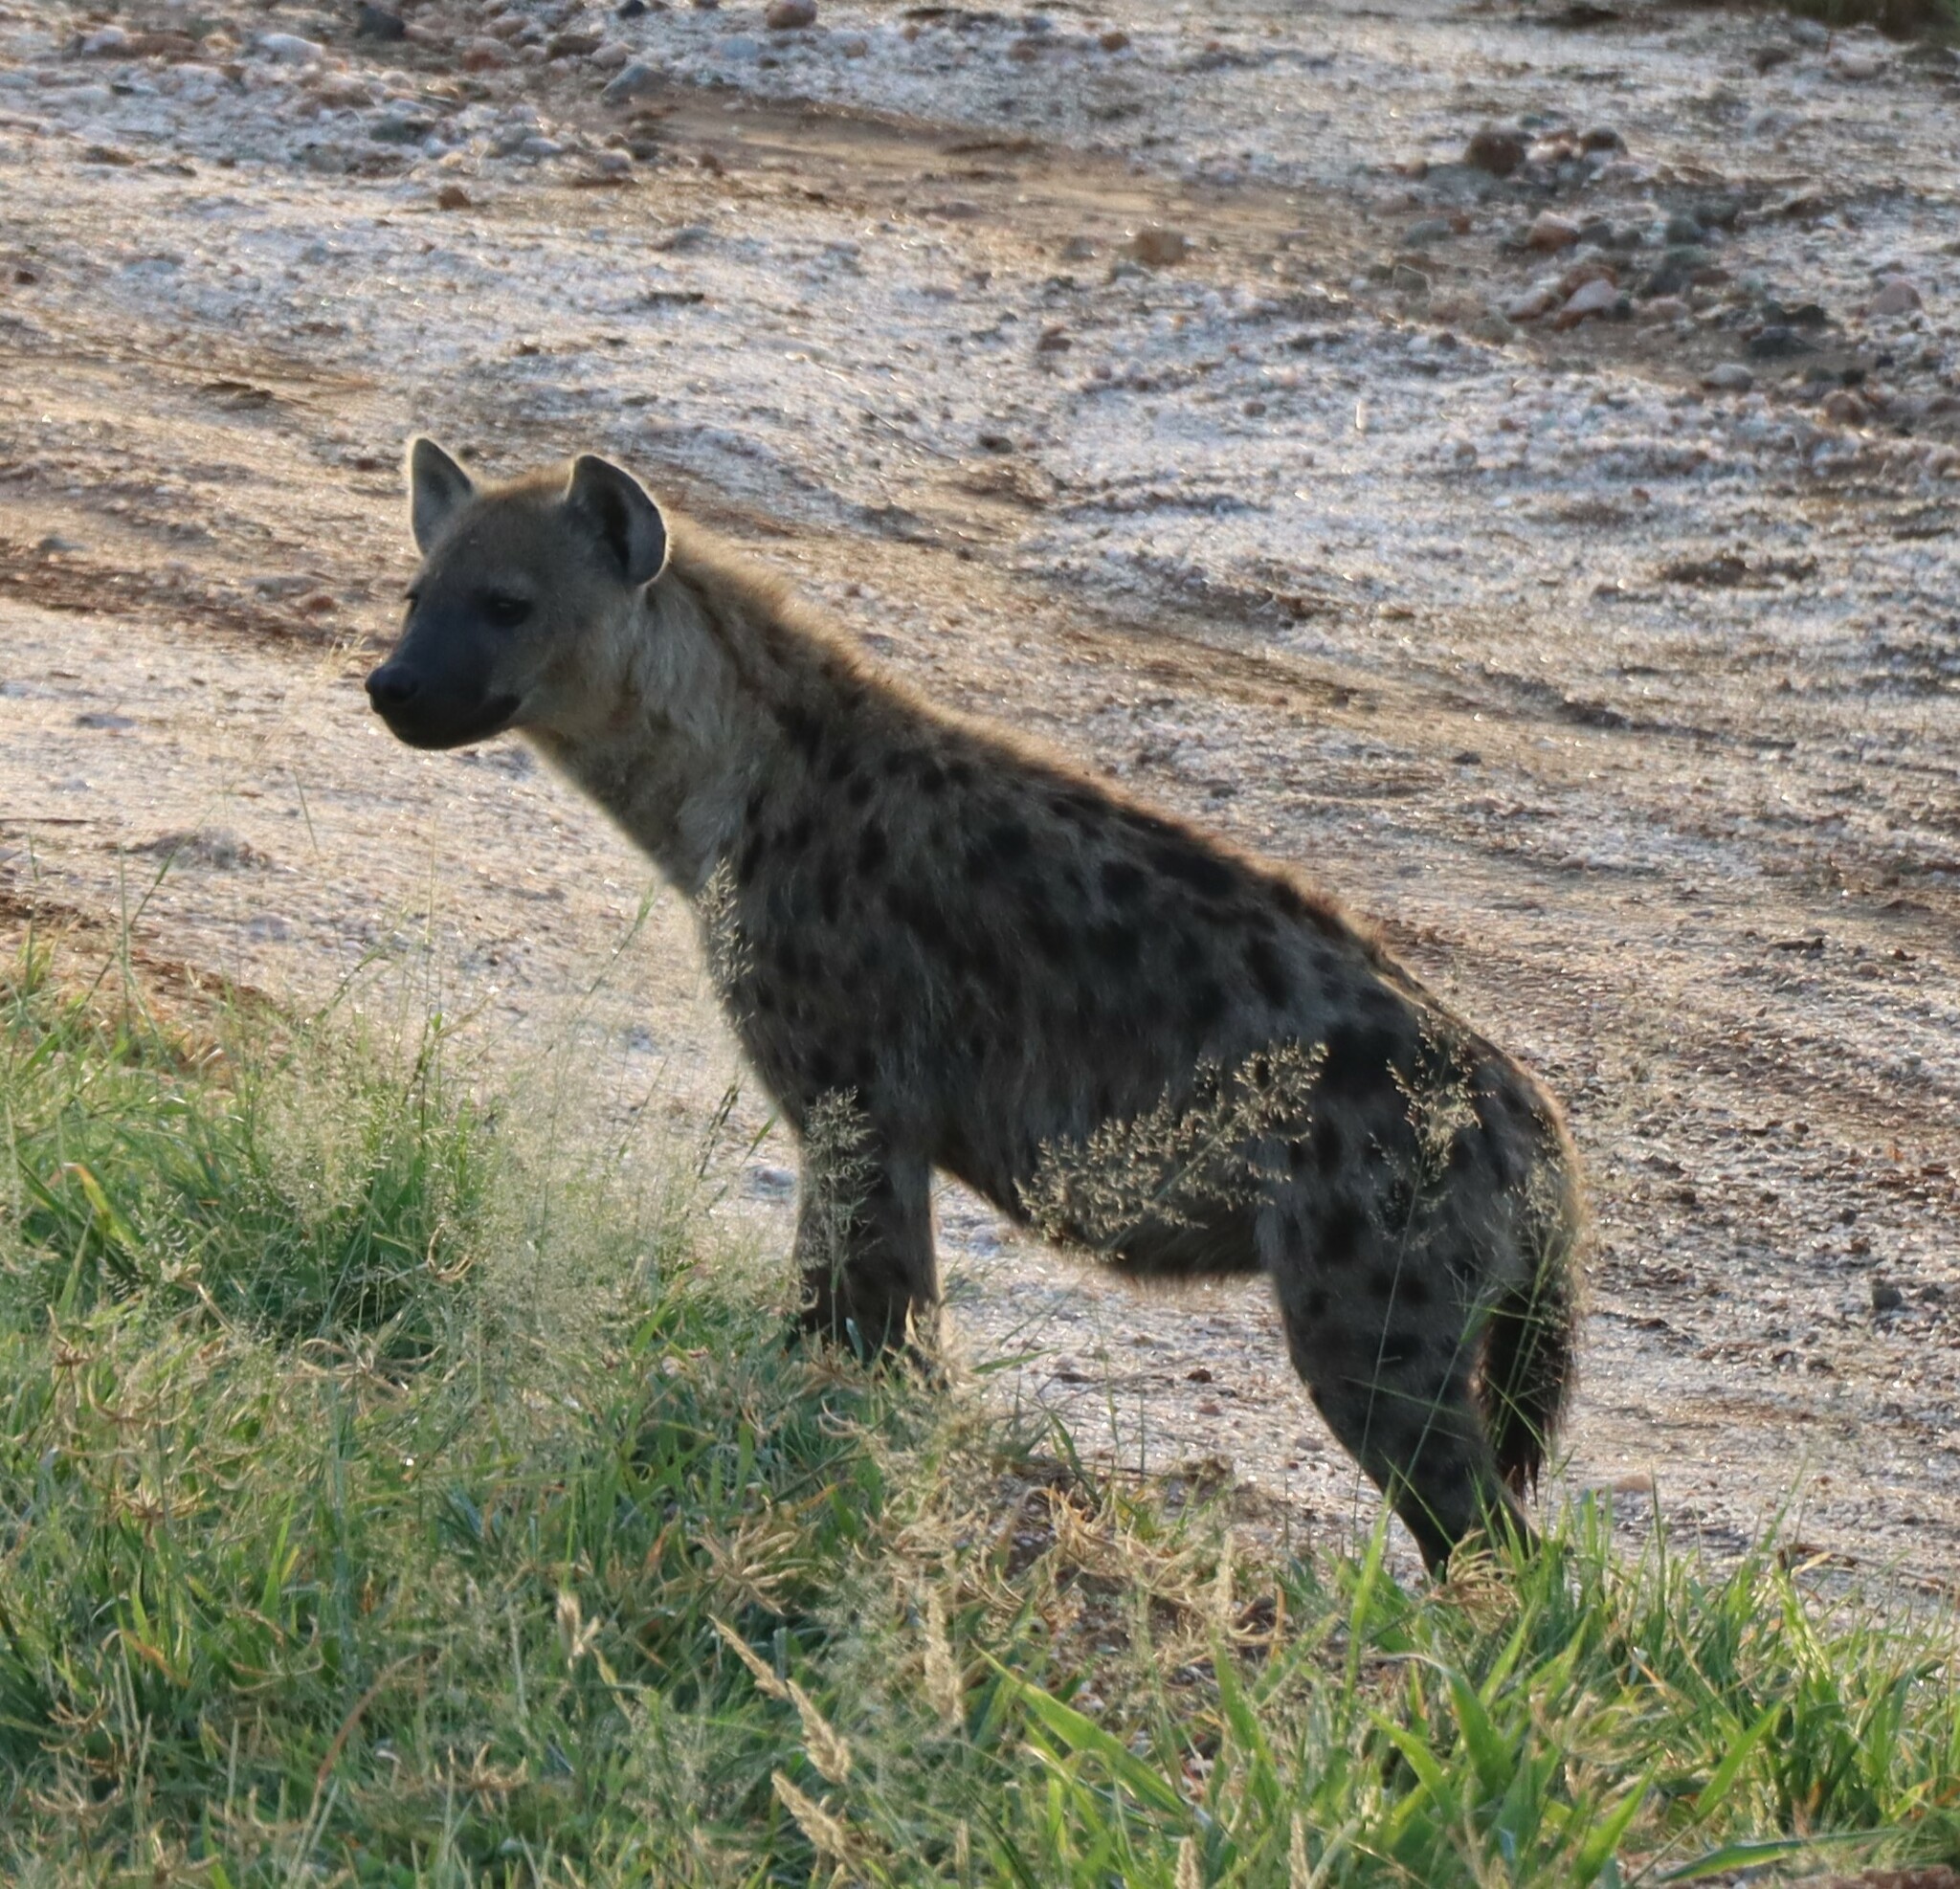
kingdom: Animalia
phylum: Chordata
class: Mammalia
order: Carnivora
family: Hyaenidae
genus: Crocuta
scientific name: Crocuta crocuta
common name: Spotted hyaena
